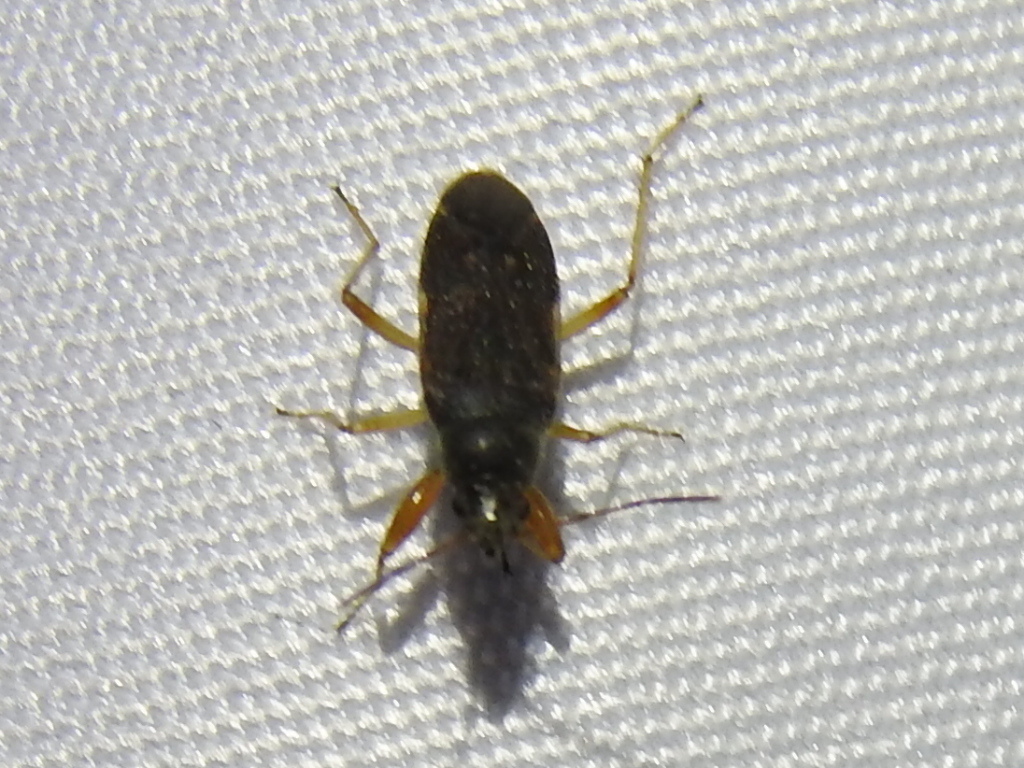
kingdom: Animalia
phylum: Arthropoda
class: Insecta
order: Hemiptera
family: Rhyparochromidae
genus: Zeridoneus
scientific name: Zeridoneus knulli
